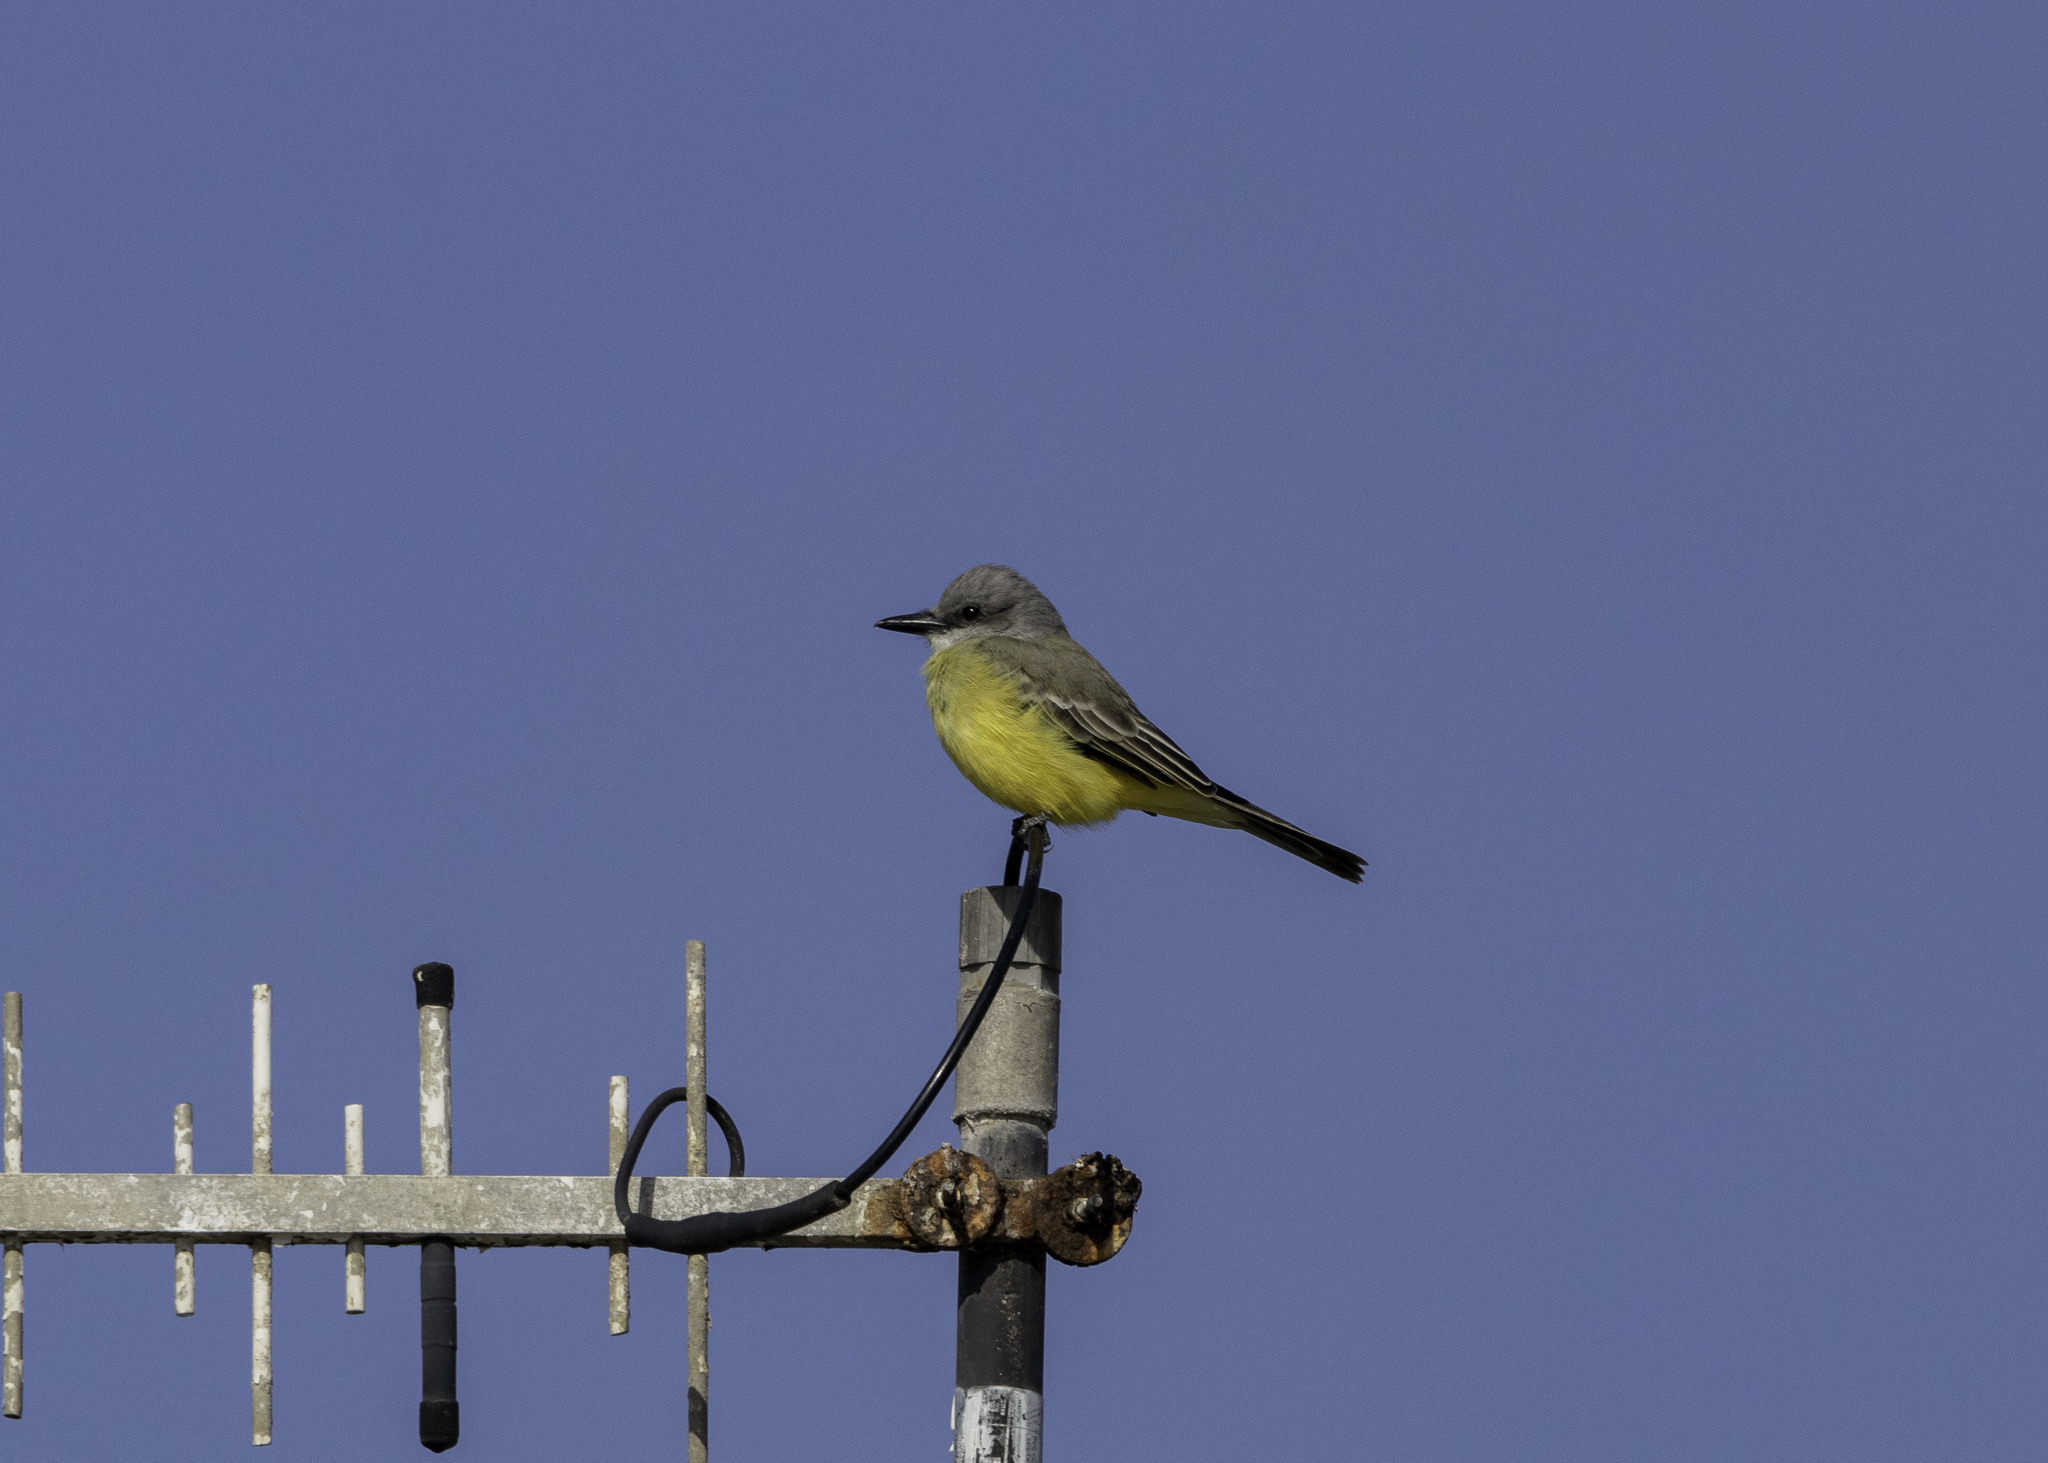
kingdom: Animalia
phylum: Chordata
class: Aves
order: Passeriformes
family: Tyrannidae
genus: Tyrannus
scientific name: Tyrannus melancholicus
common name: Tropical kingbird
